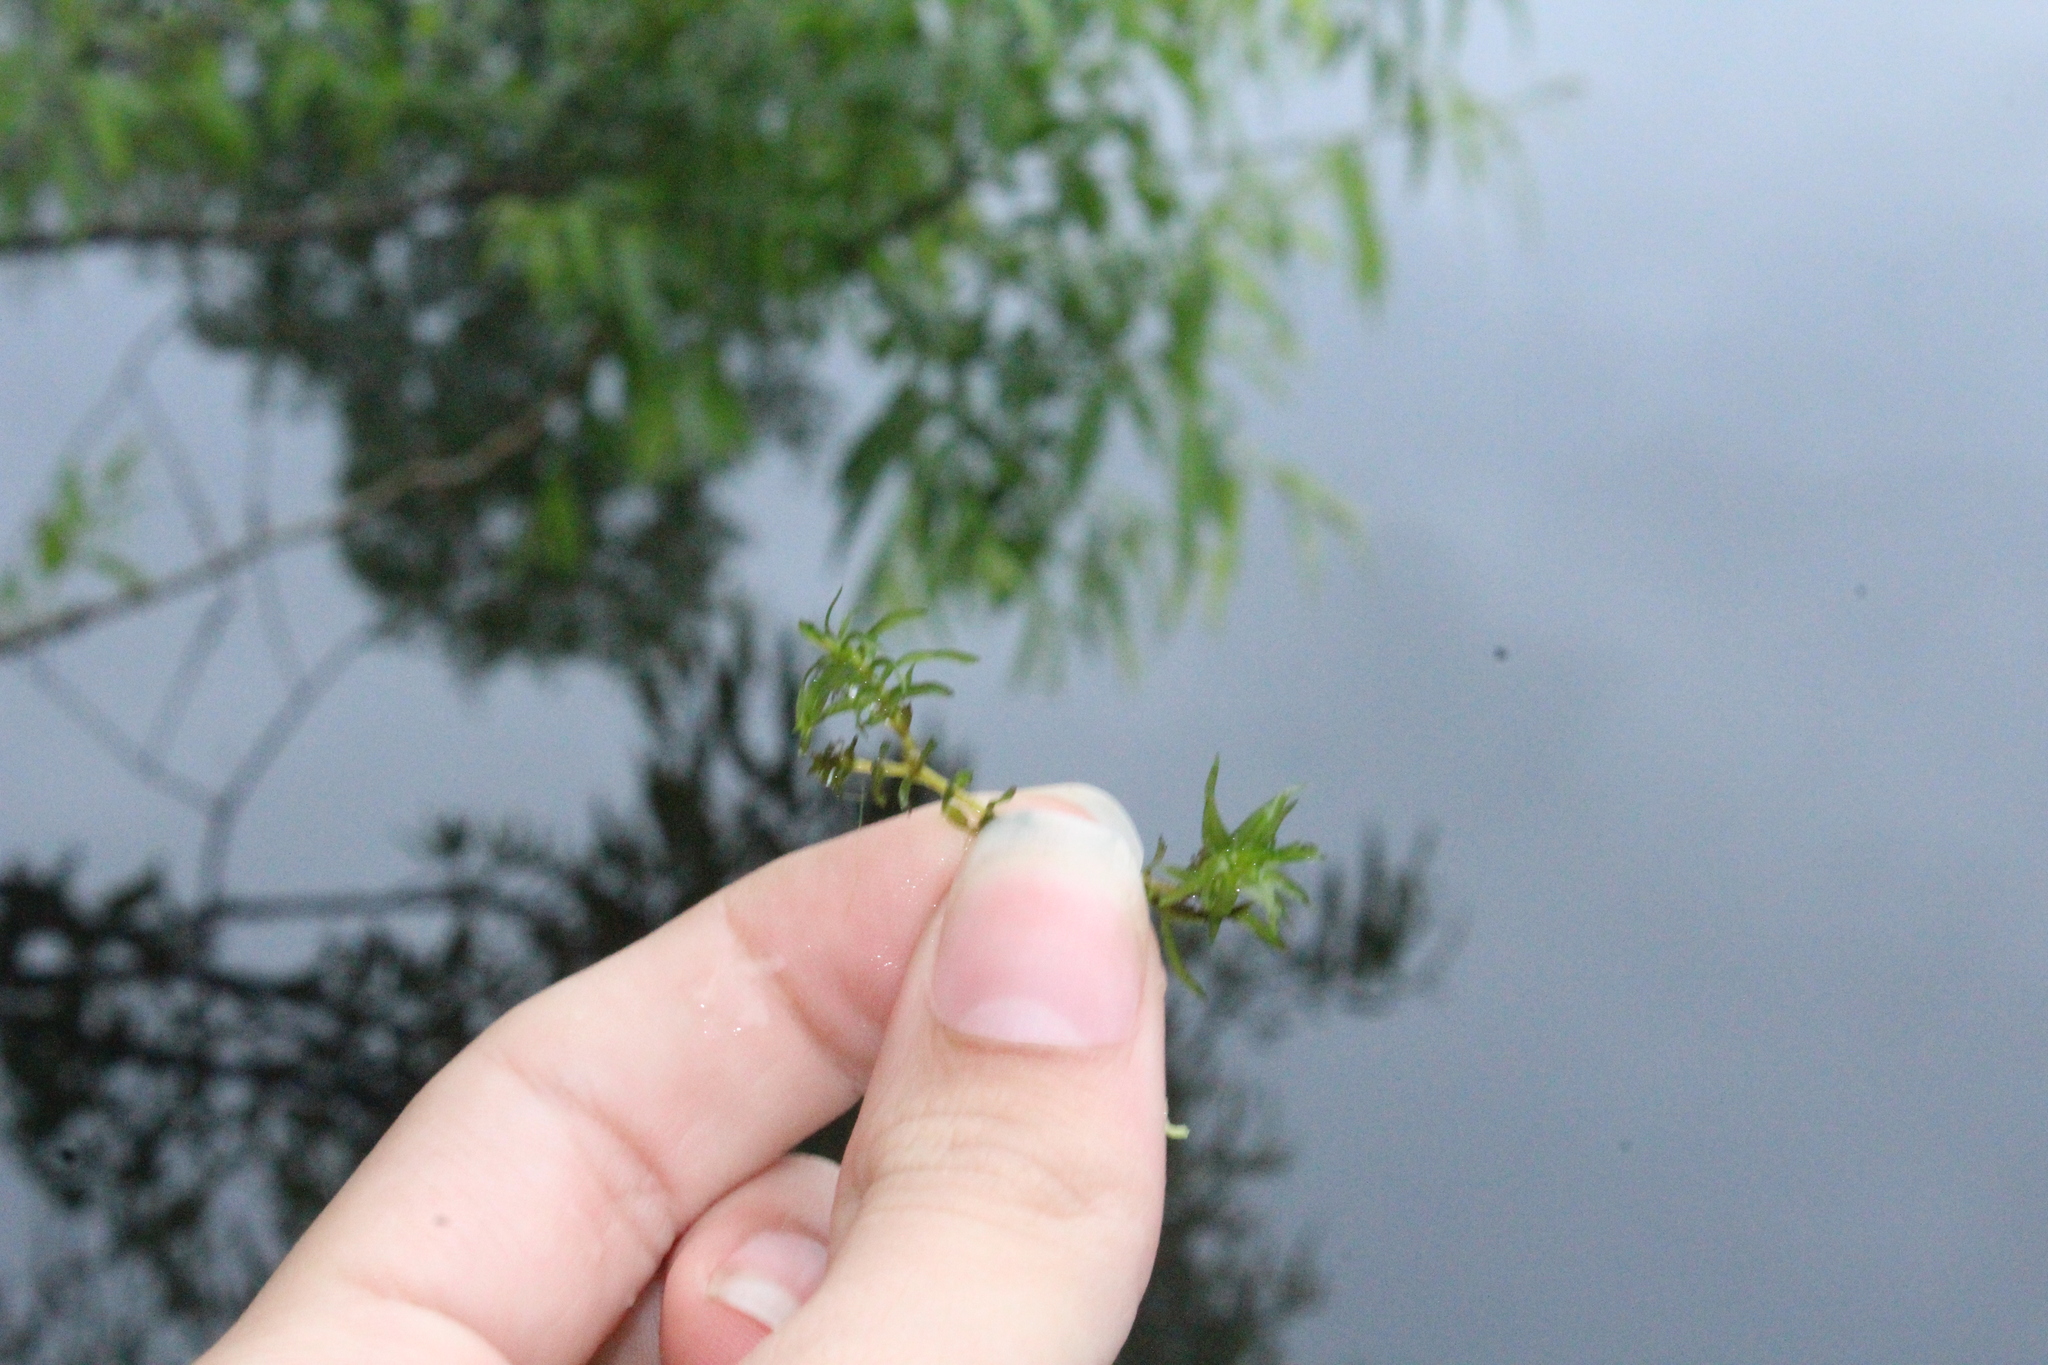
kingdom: Plantae
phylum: Tracheophyta
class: Liliopsida
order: Alismatales
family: Hydrocharitaceae
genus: Hydrilla
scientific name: Hydrilla verticillata
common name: Florida-elodea
